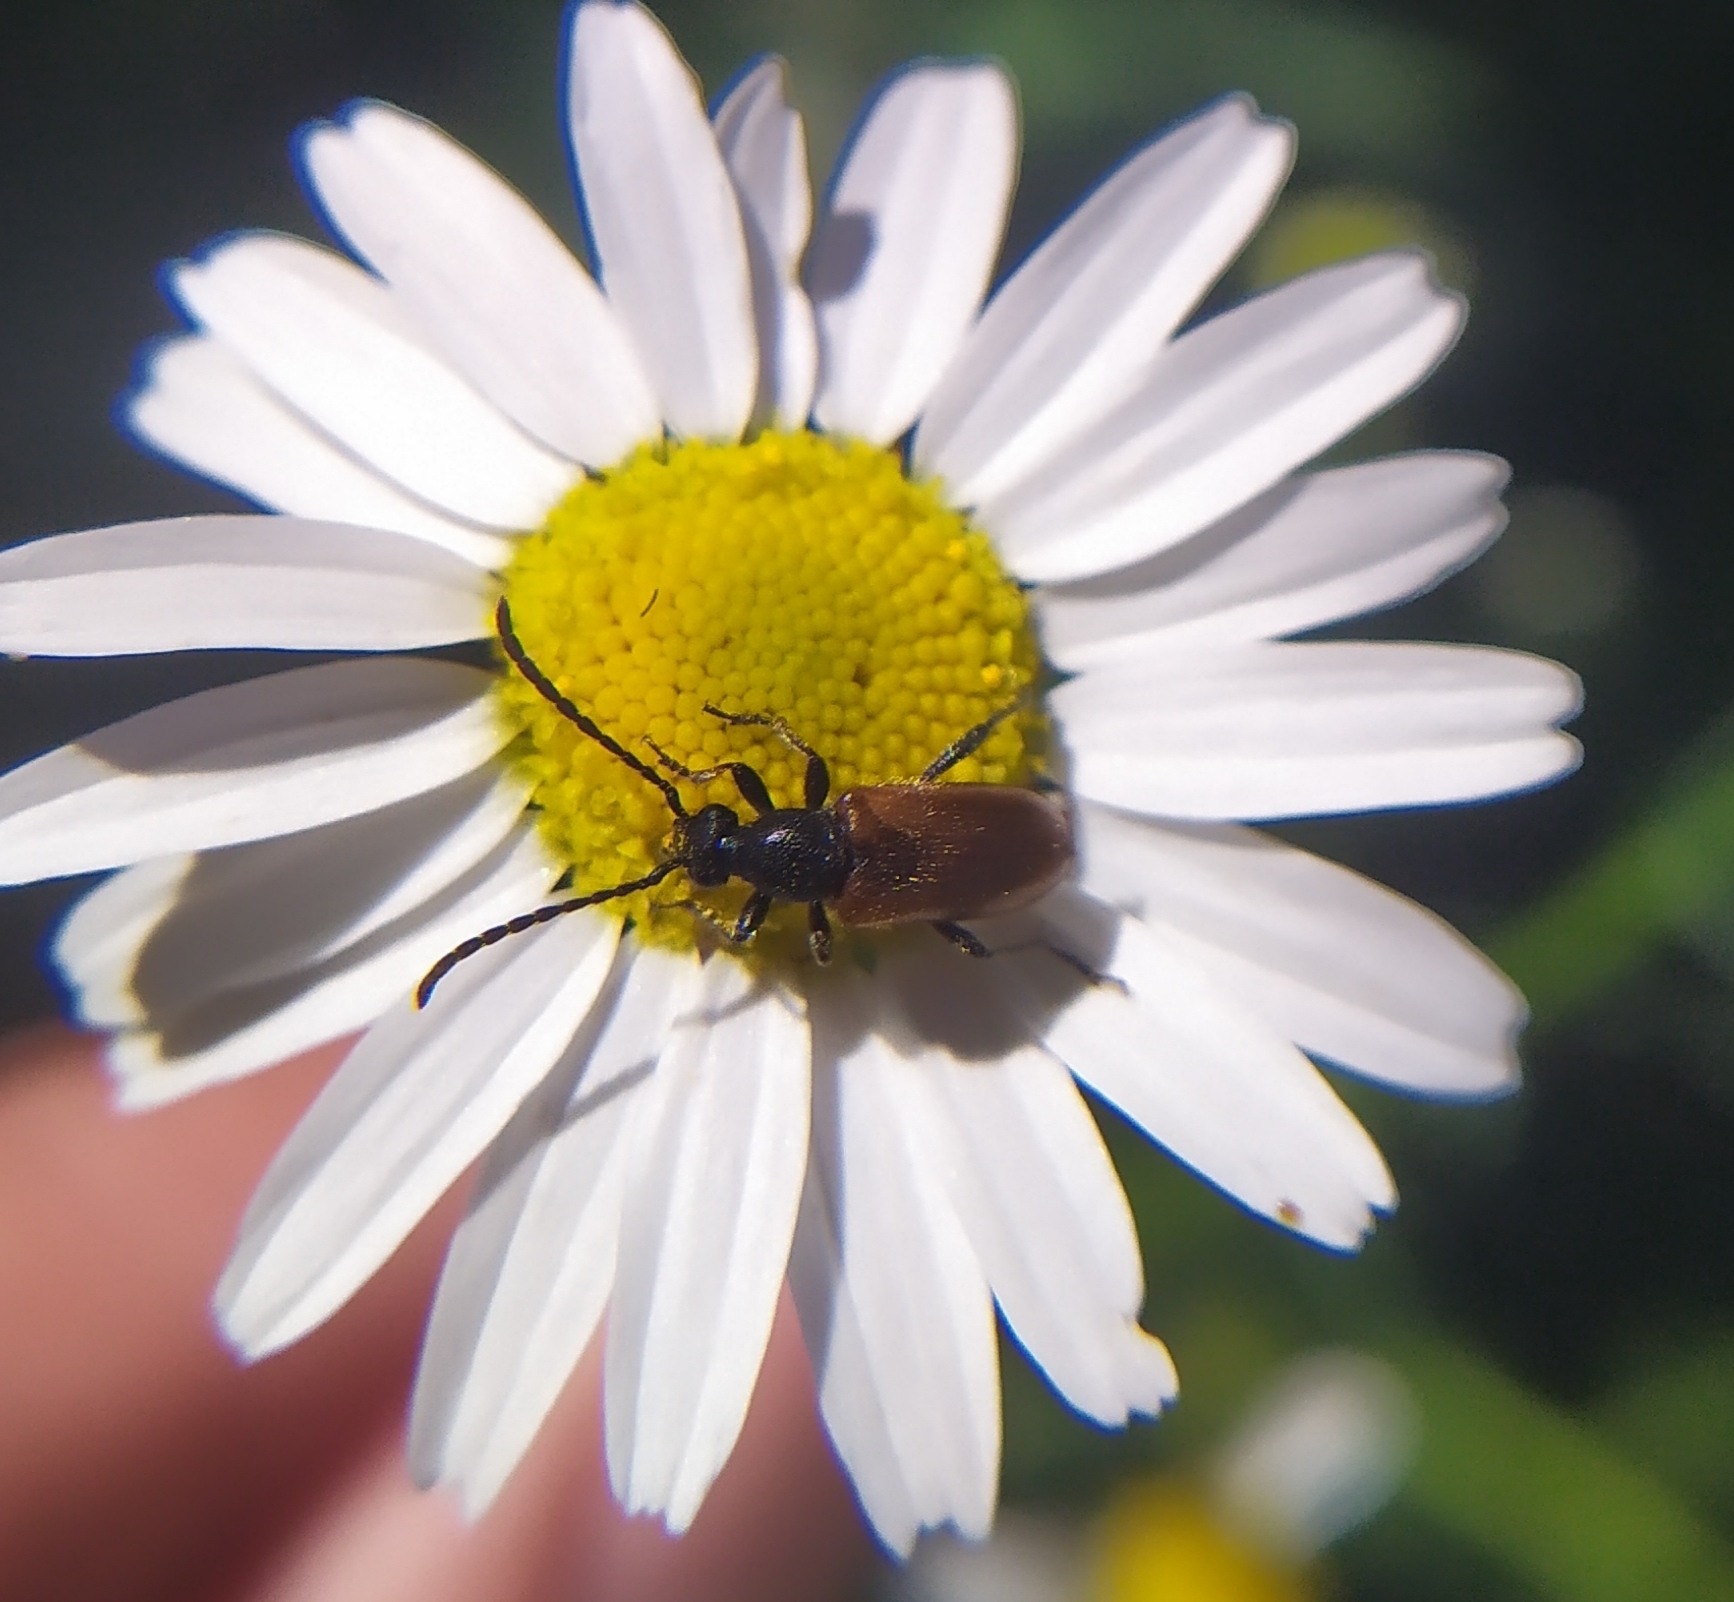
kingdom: Animalia
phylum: Arthropoda
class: Insecta
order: Coleoptera
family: Cerambycidae
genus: Pseudovadonia
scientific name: Pseudovadonia livida
